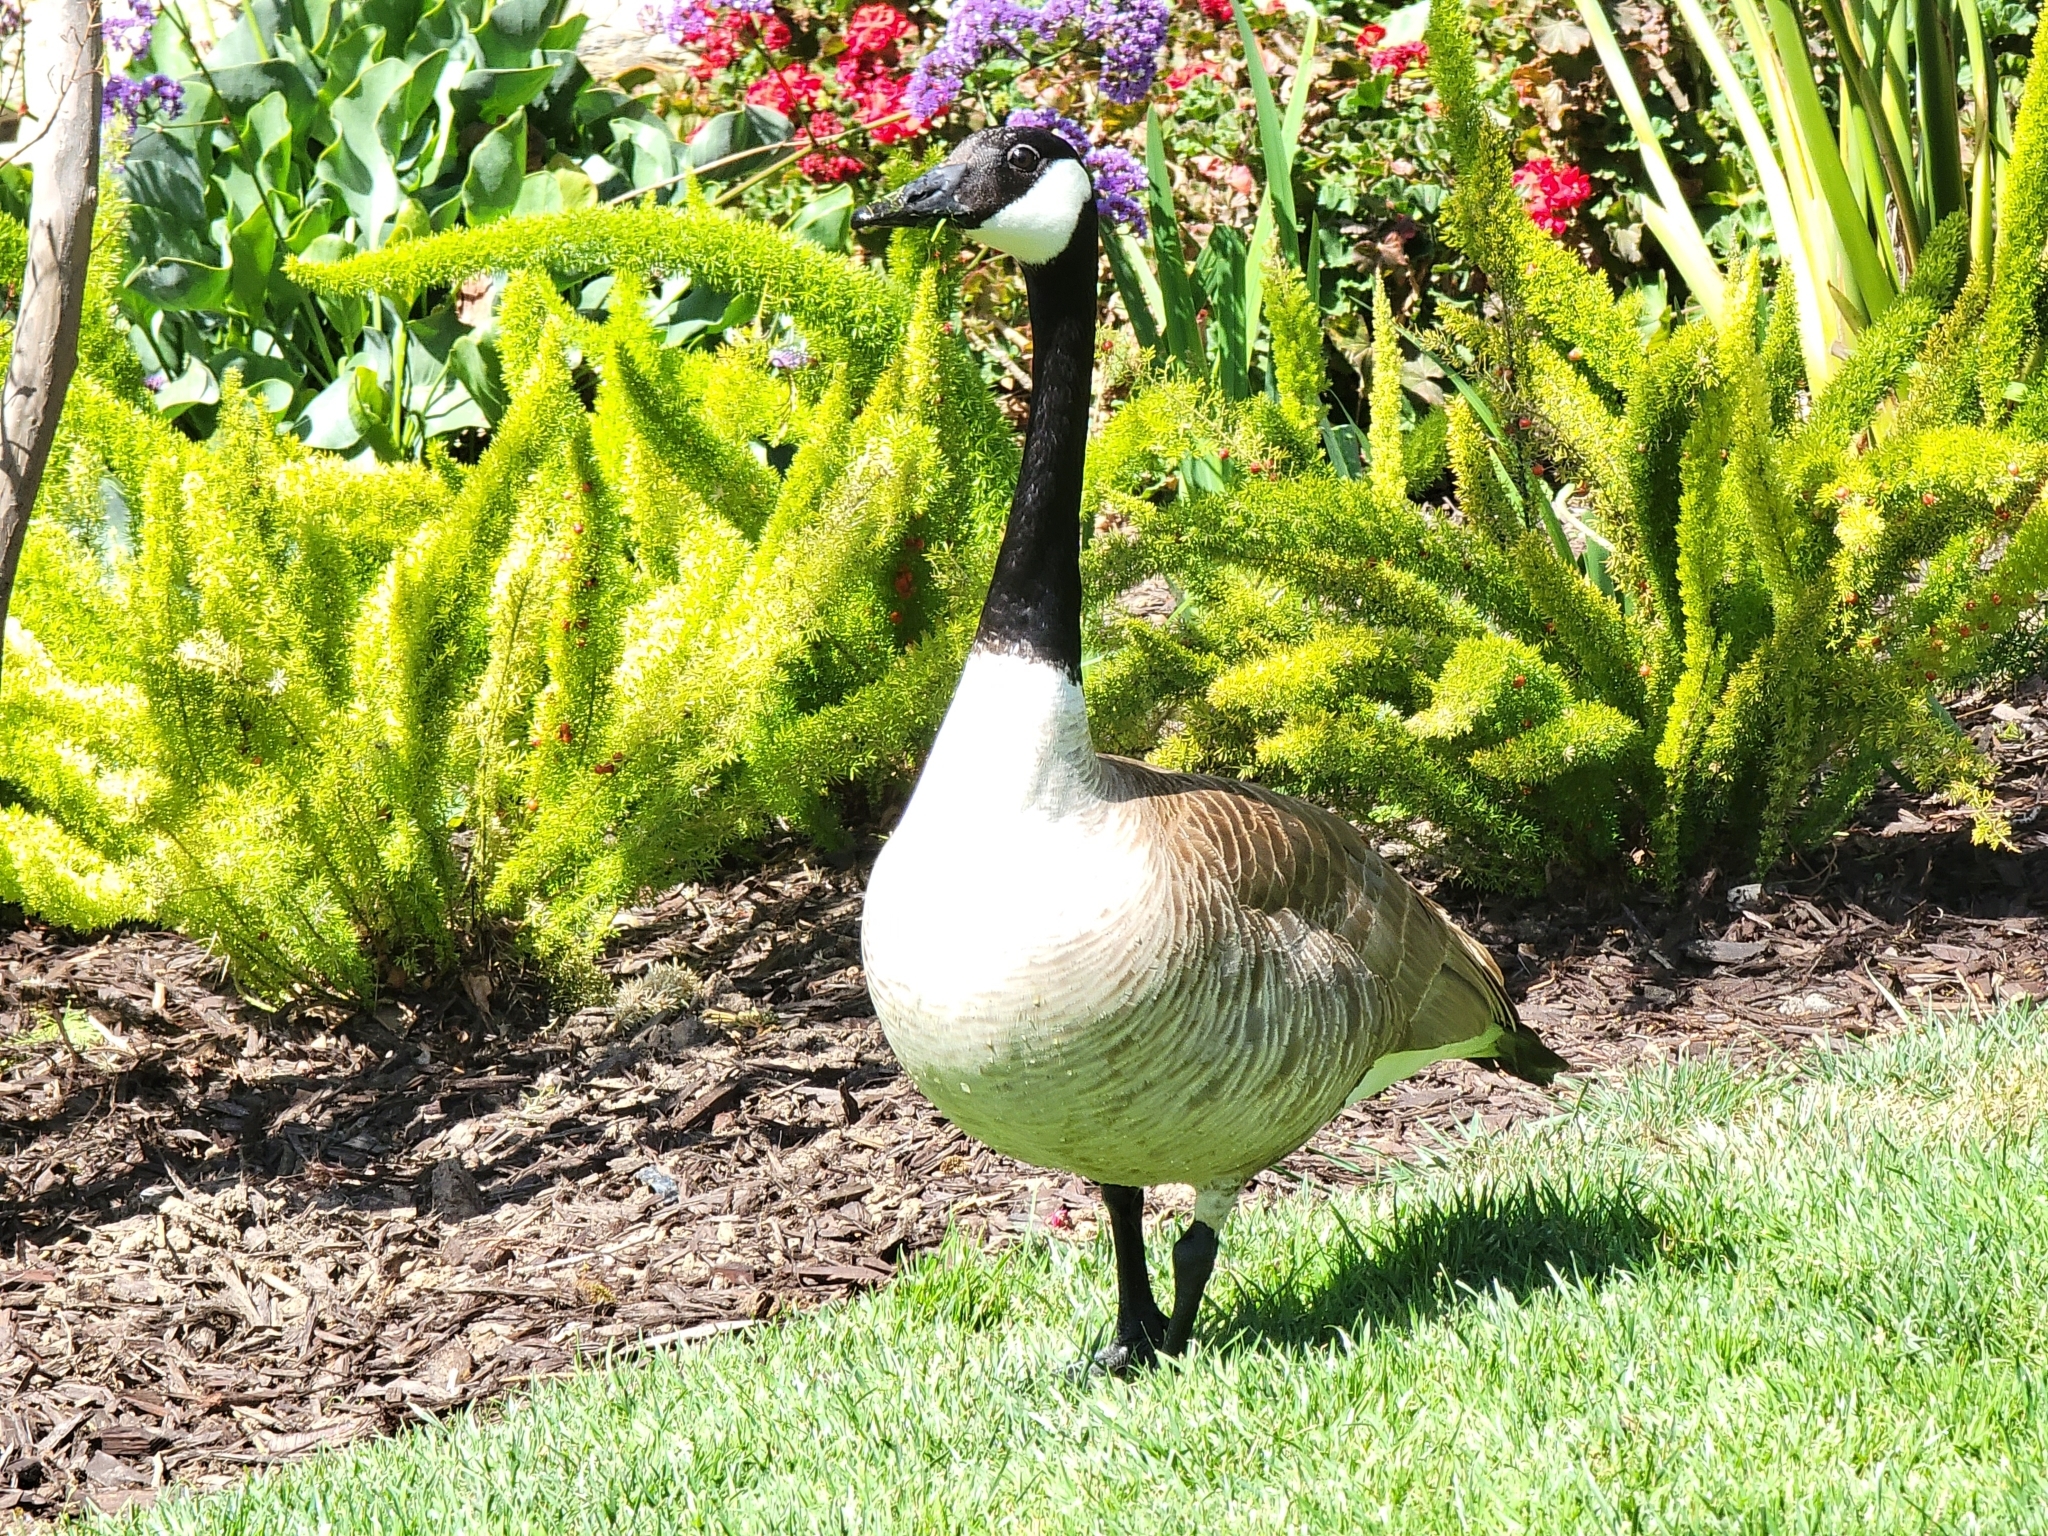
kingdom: Animalia
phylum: Chordata
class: Aves
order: Anseriformes
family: Anatidae
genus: Branta
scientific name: Branta canadensis
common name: Canada goose
